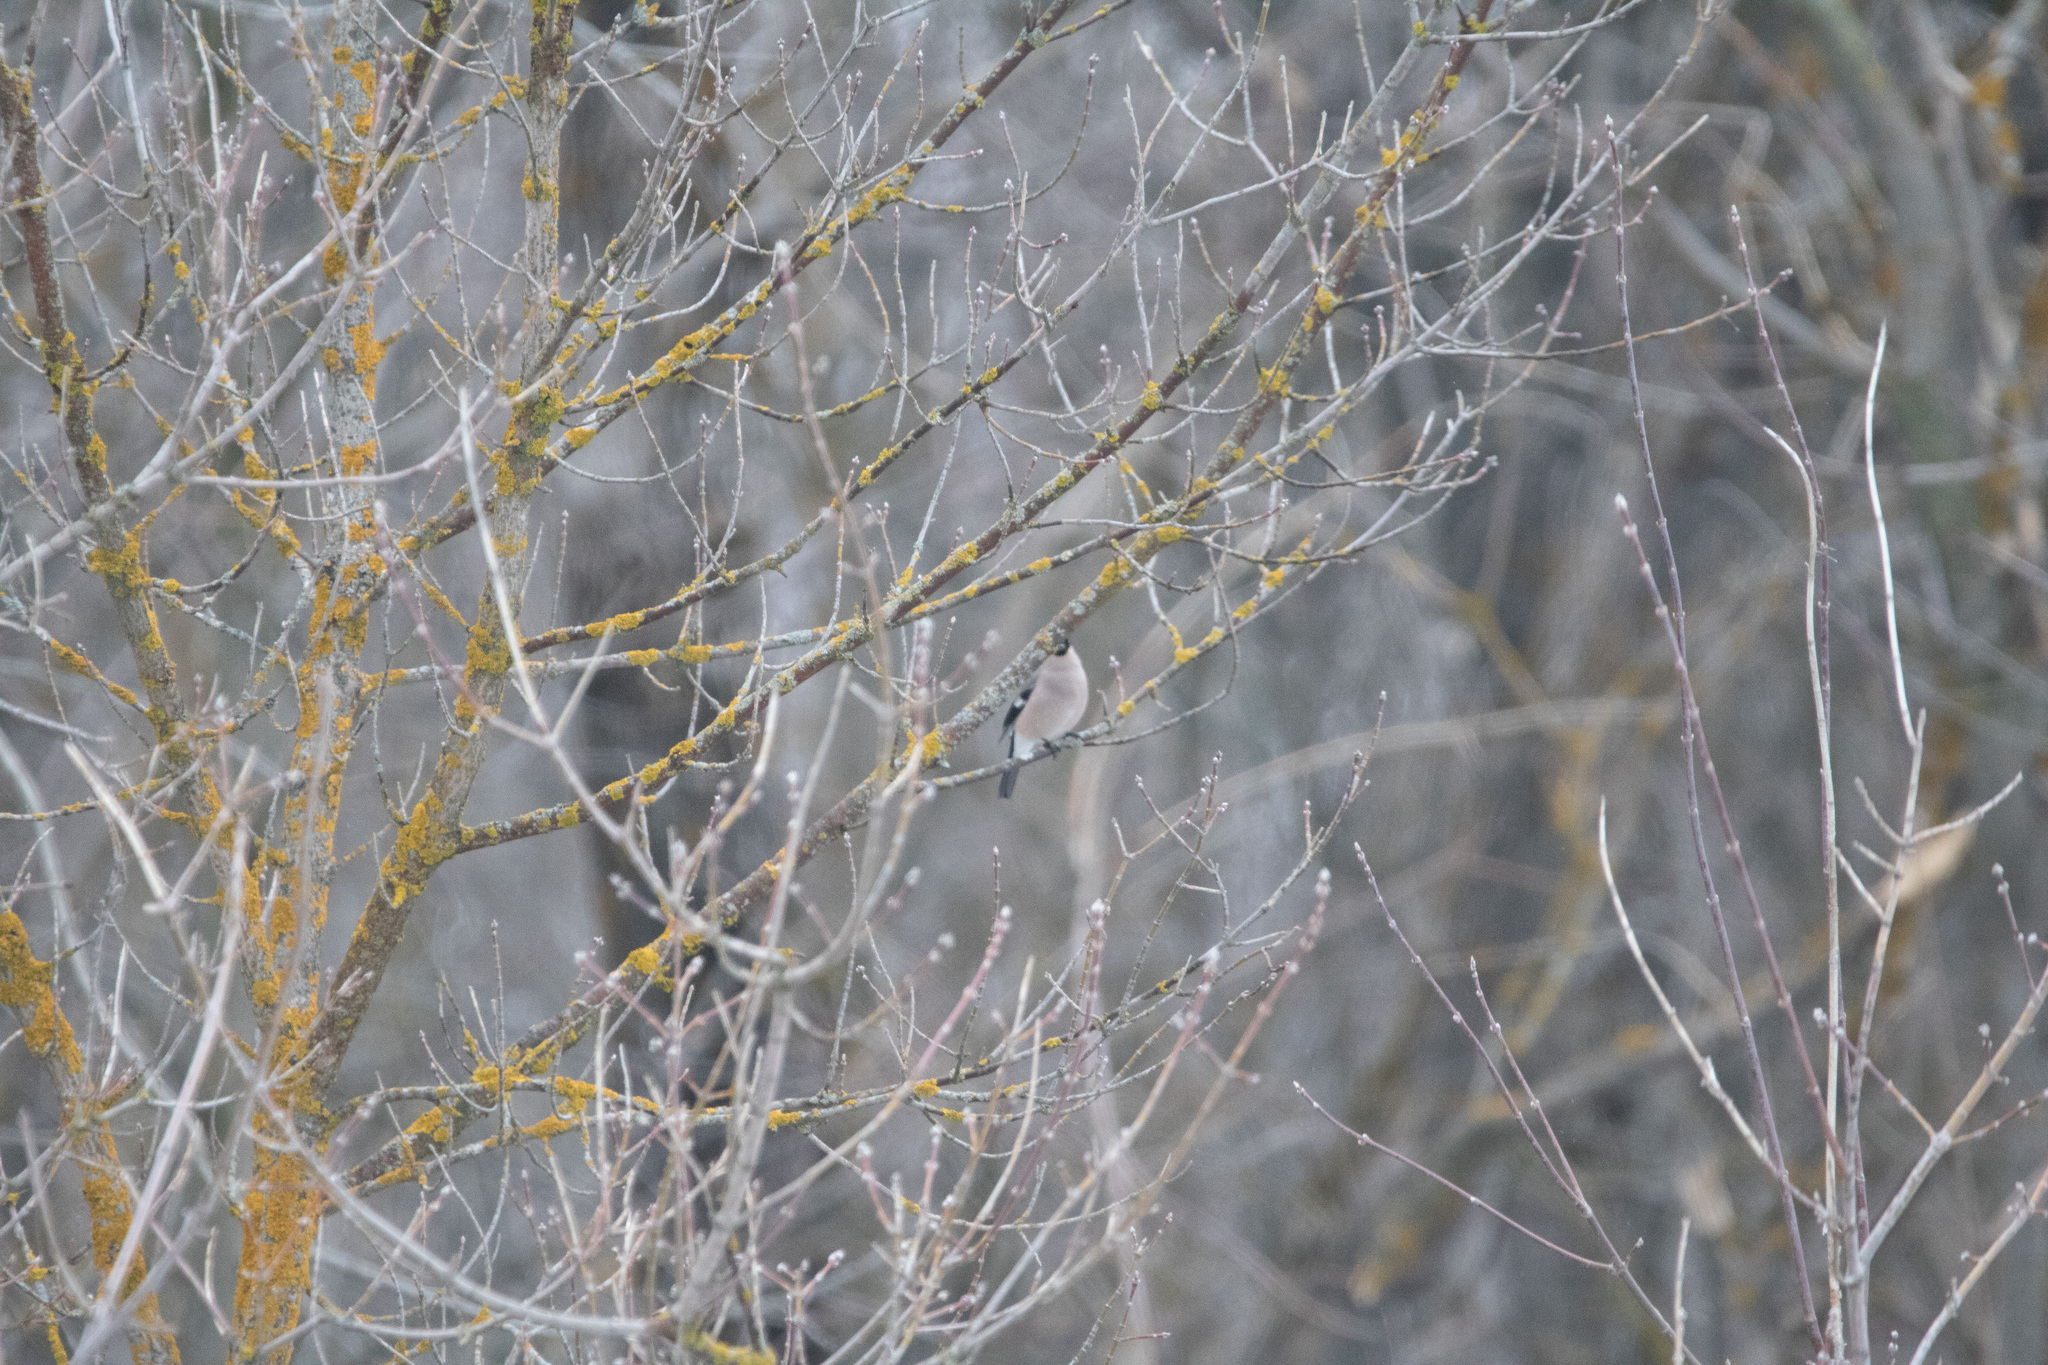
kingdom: Animalia
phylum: Chordata
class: Aves
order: Passeriformes
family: Fringillidae
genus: Pyrrhula
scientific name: Pyrrhula pyrrhula
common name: Eurasian bullfinch
